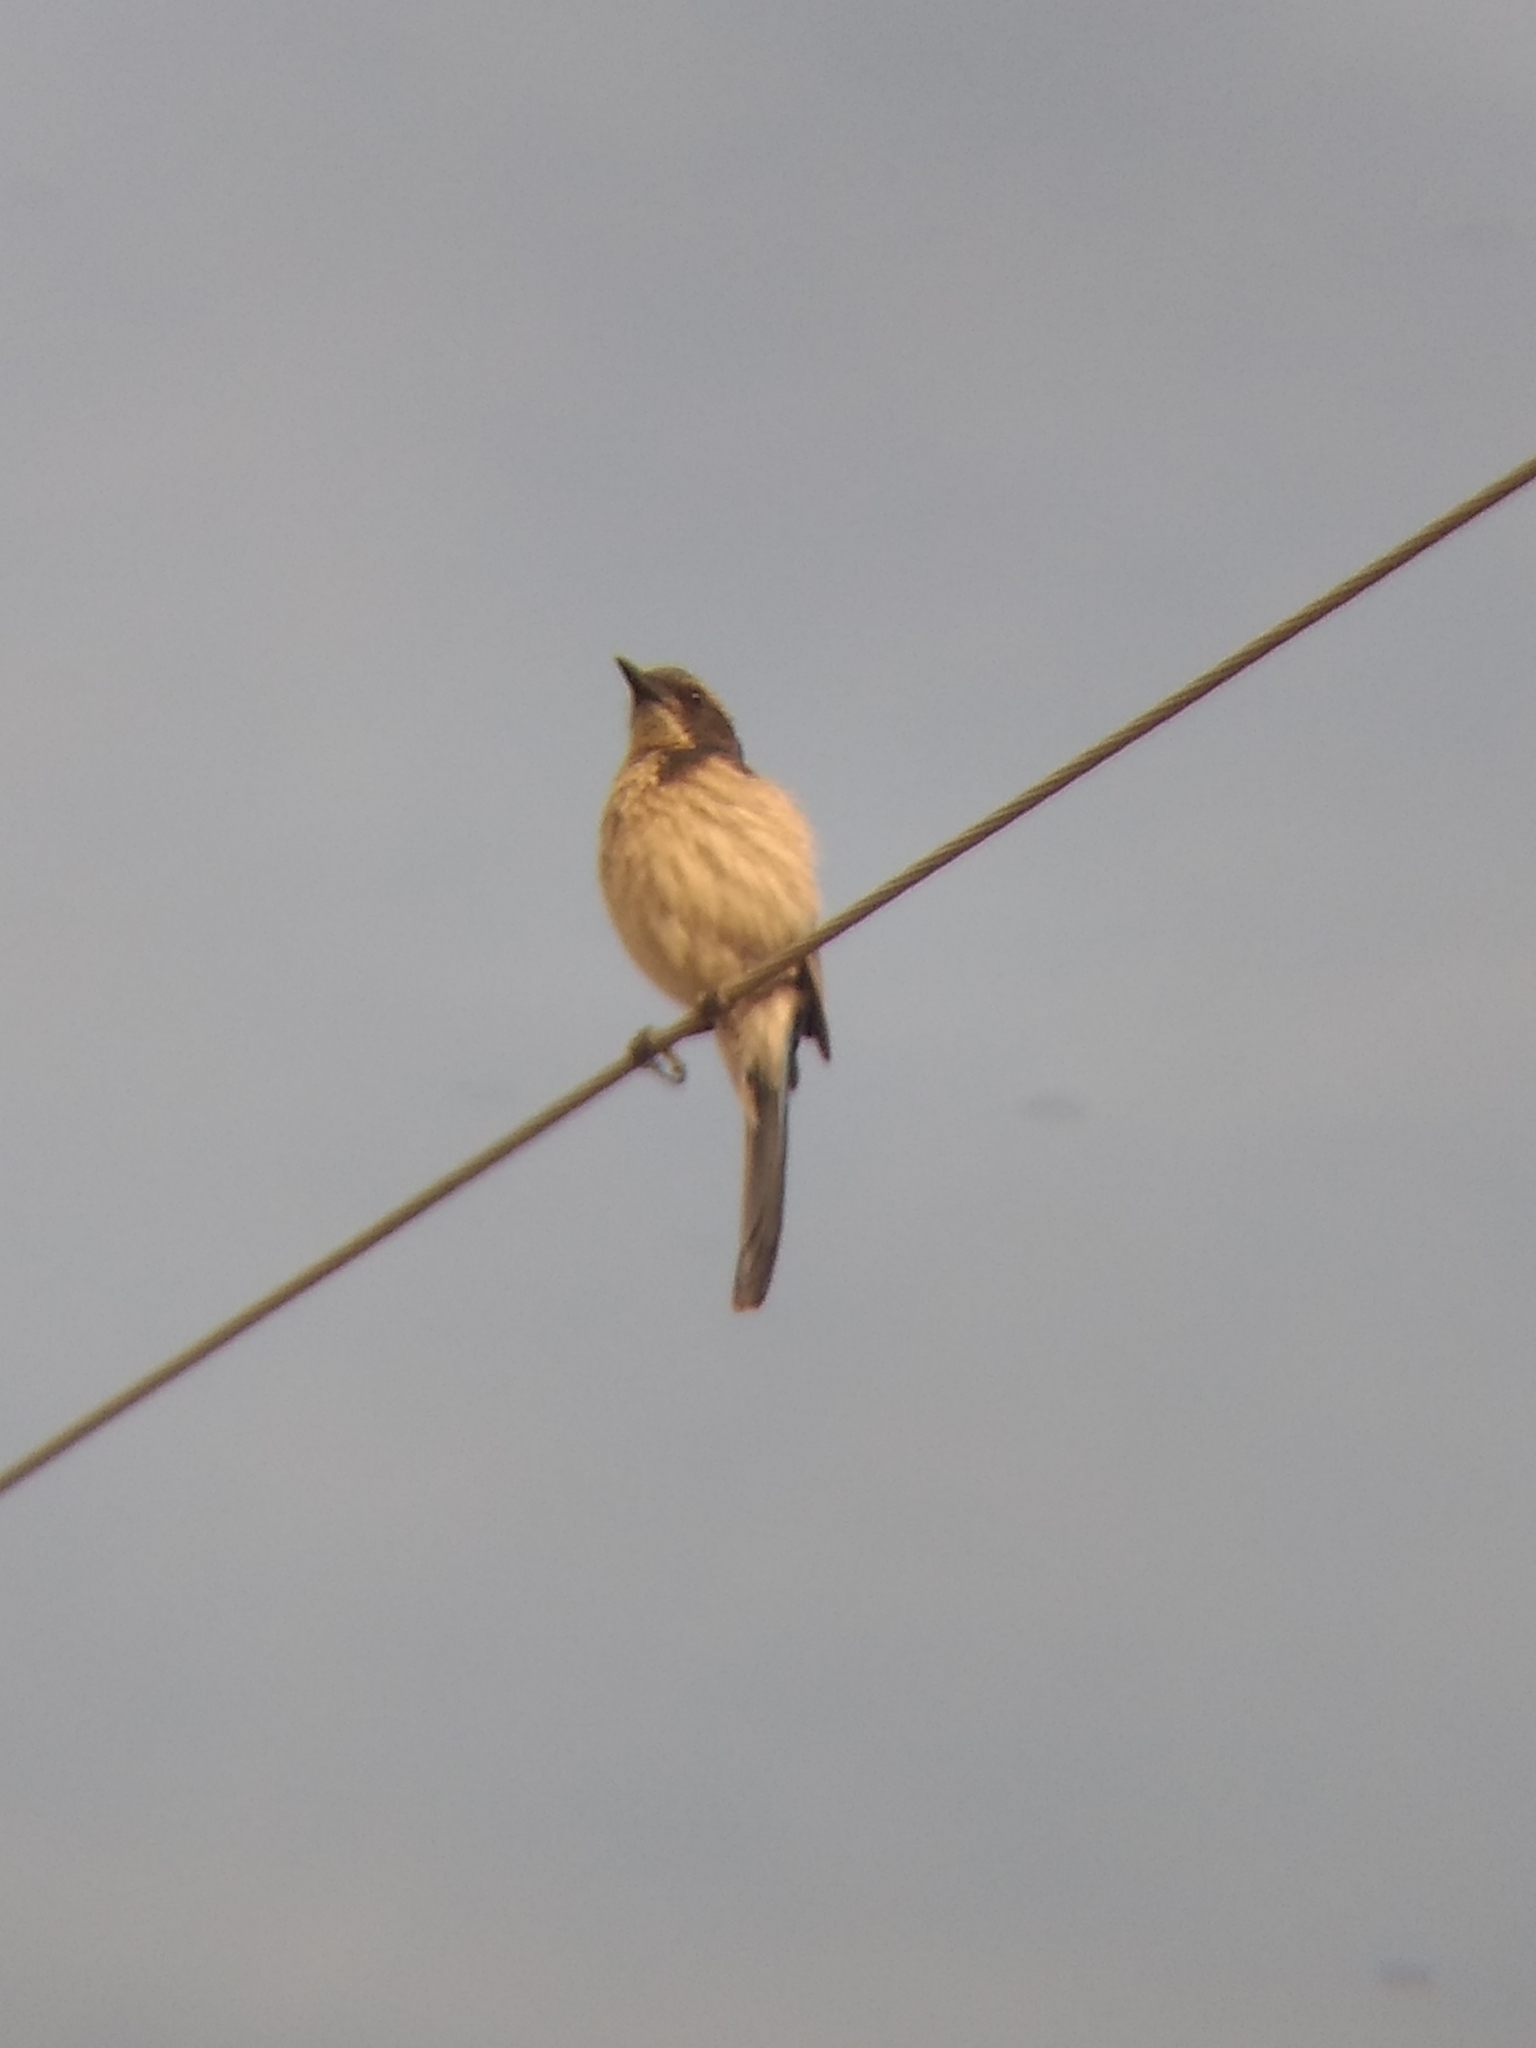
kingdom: Animalia
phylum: Chordata
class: Aves
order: Passeriformes
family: Corvidae
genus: Aphelocoma
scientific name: Aphelocoma californica
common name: California scrub-jay
